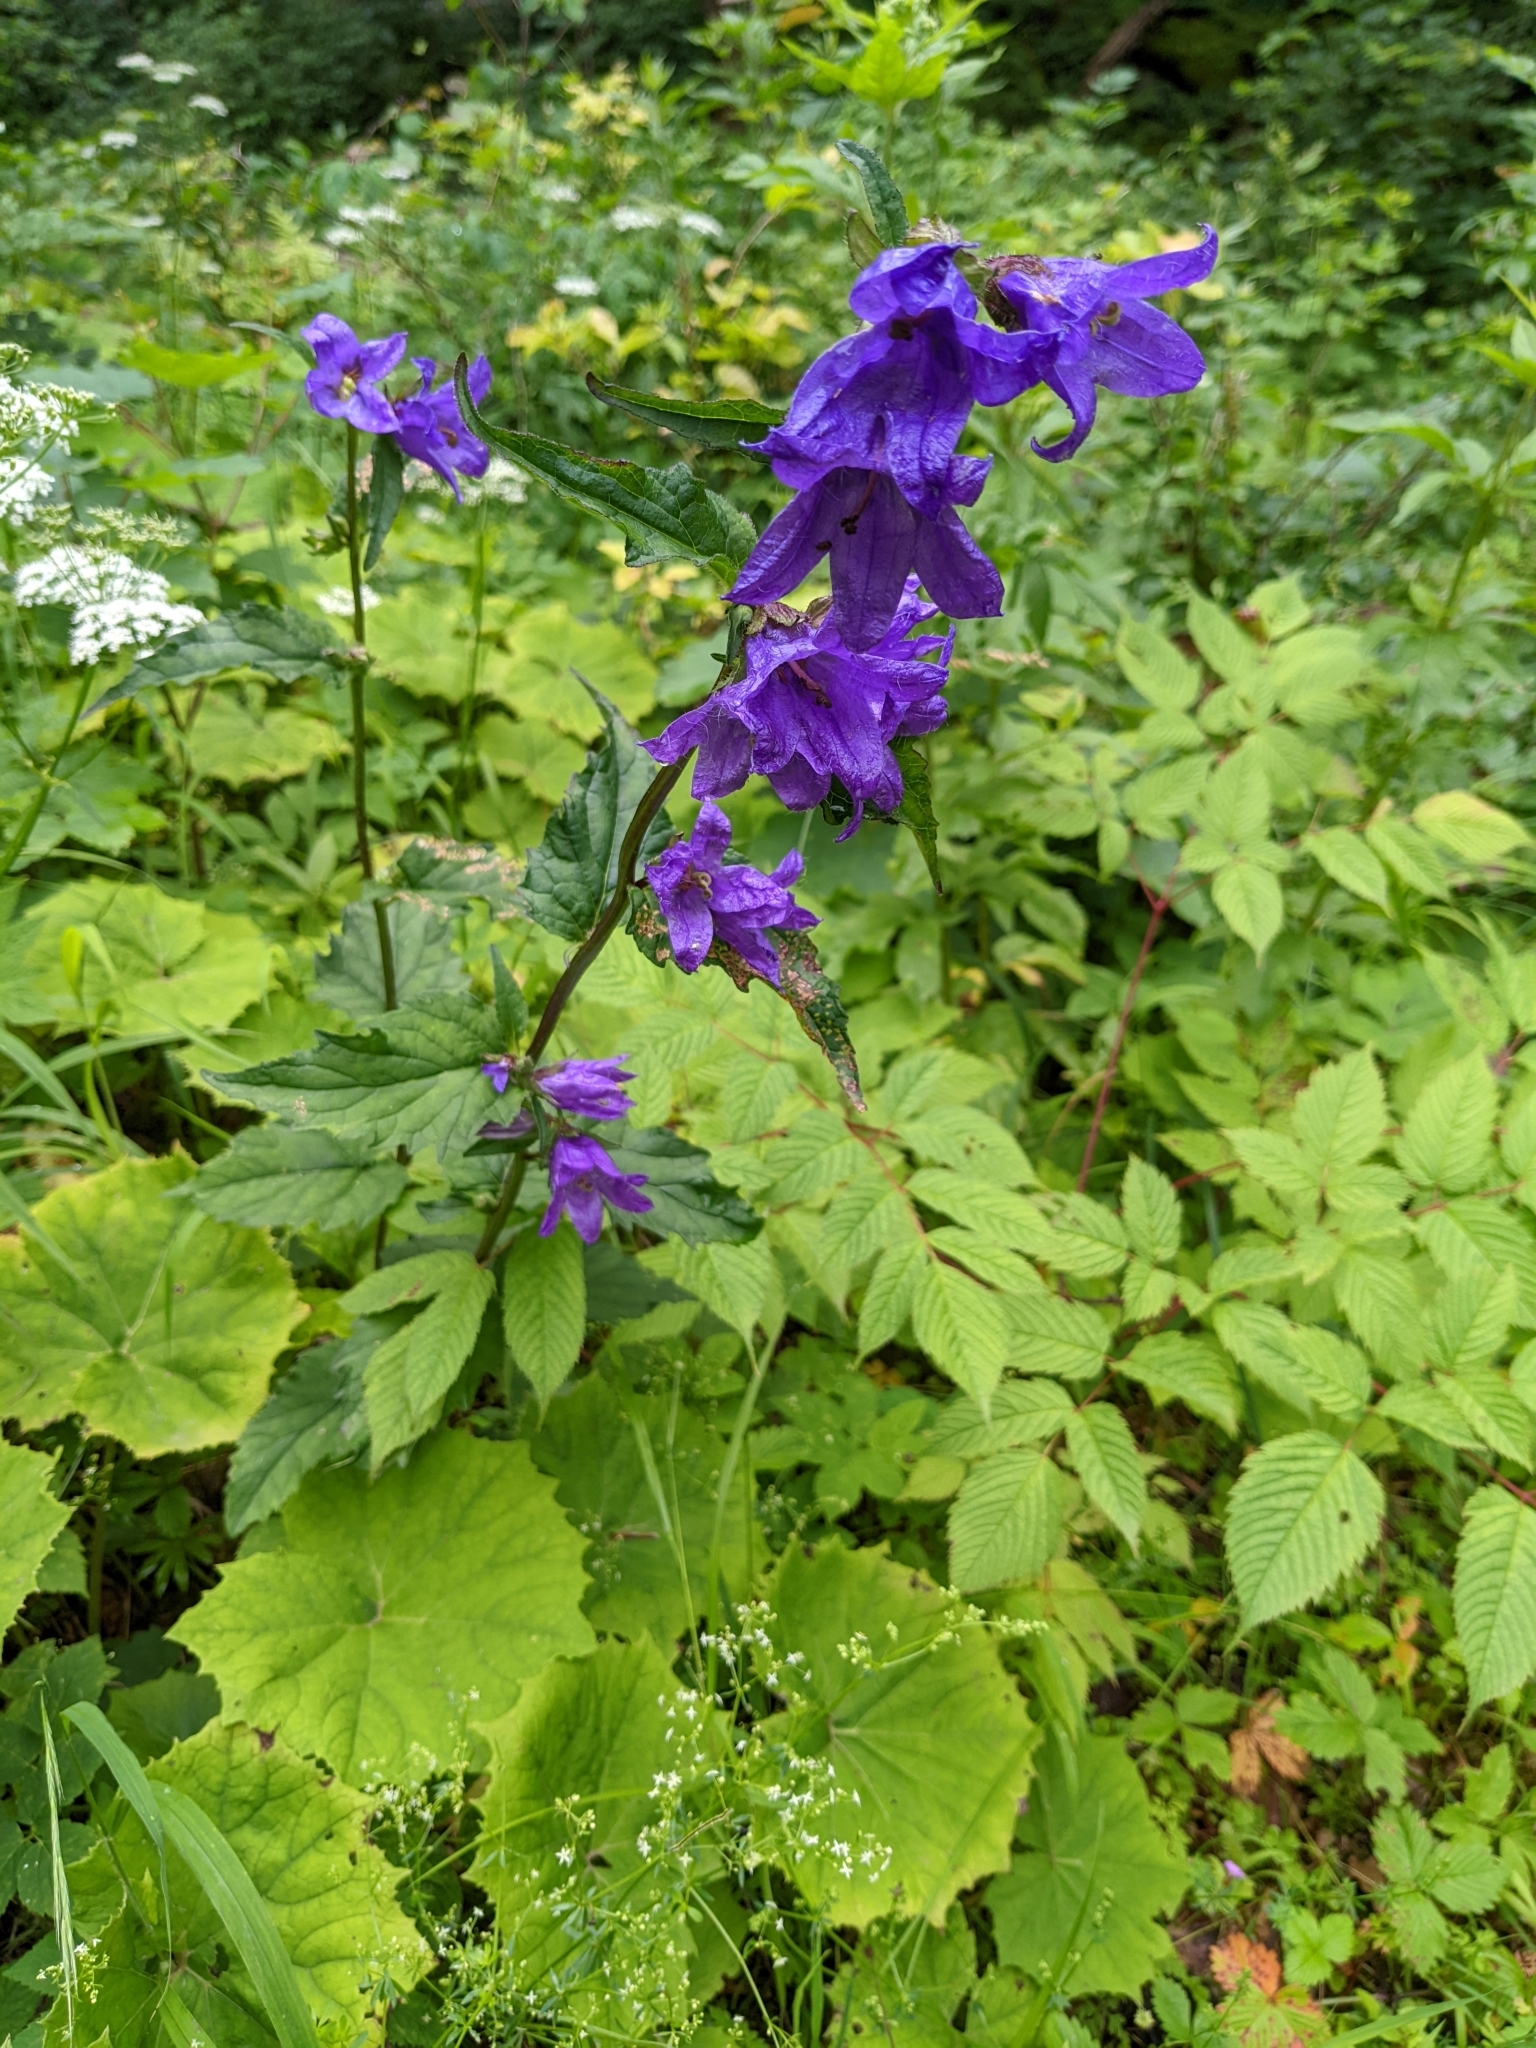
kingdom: Plantae
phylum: Tracheophyta
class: Magnoliopsida
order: Asterales
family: Campanulaceae
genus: Campanula
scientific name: Campanula trachelium
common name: Nettle-leaved bellflower
